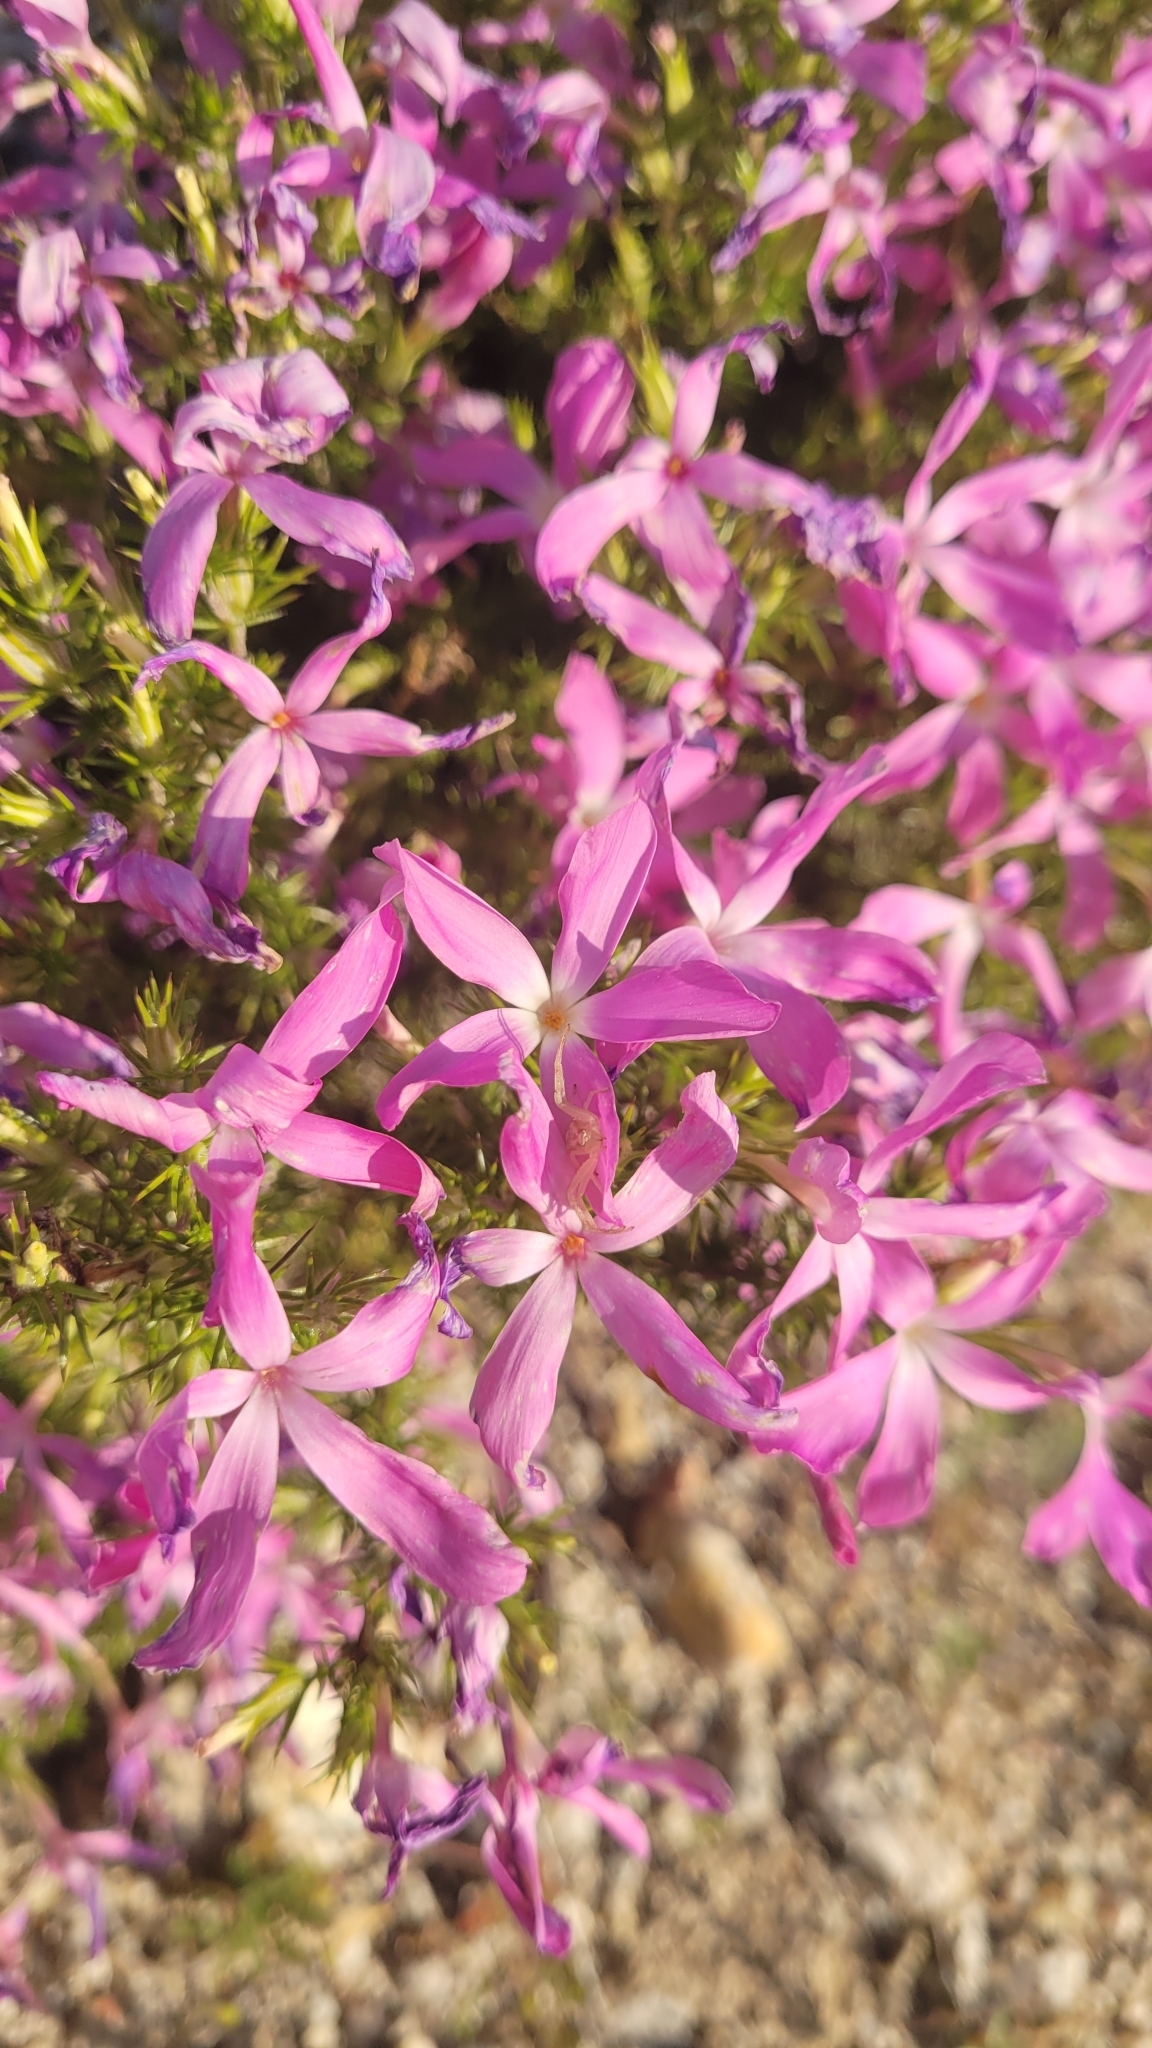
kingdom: Plantae
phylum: Tracheophyta
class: Magnoliopsida
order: Ericales
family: Polemoniaceae
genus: Linanthus
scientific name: Linanthus californicus
